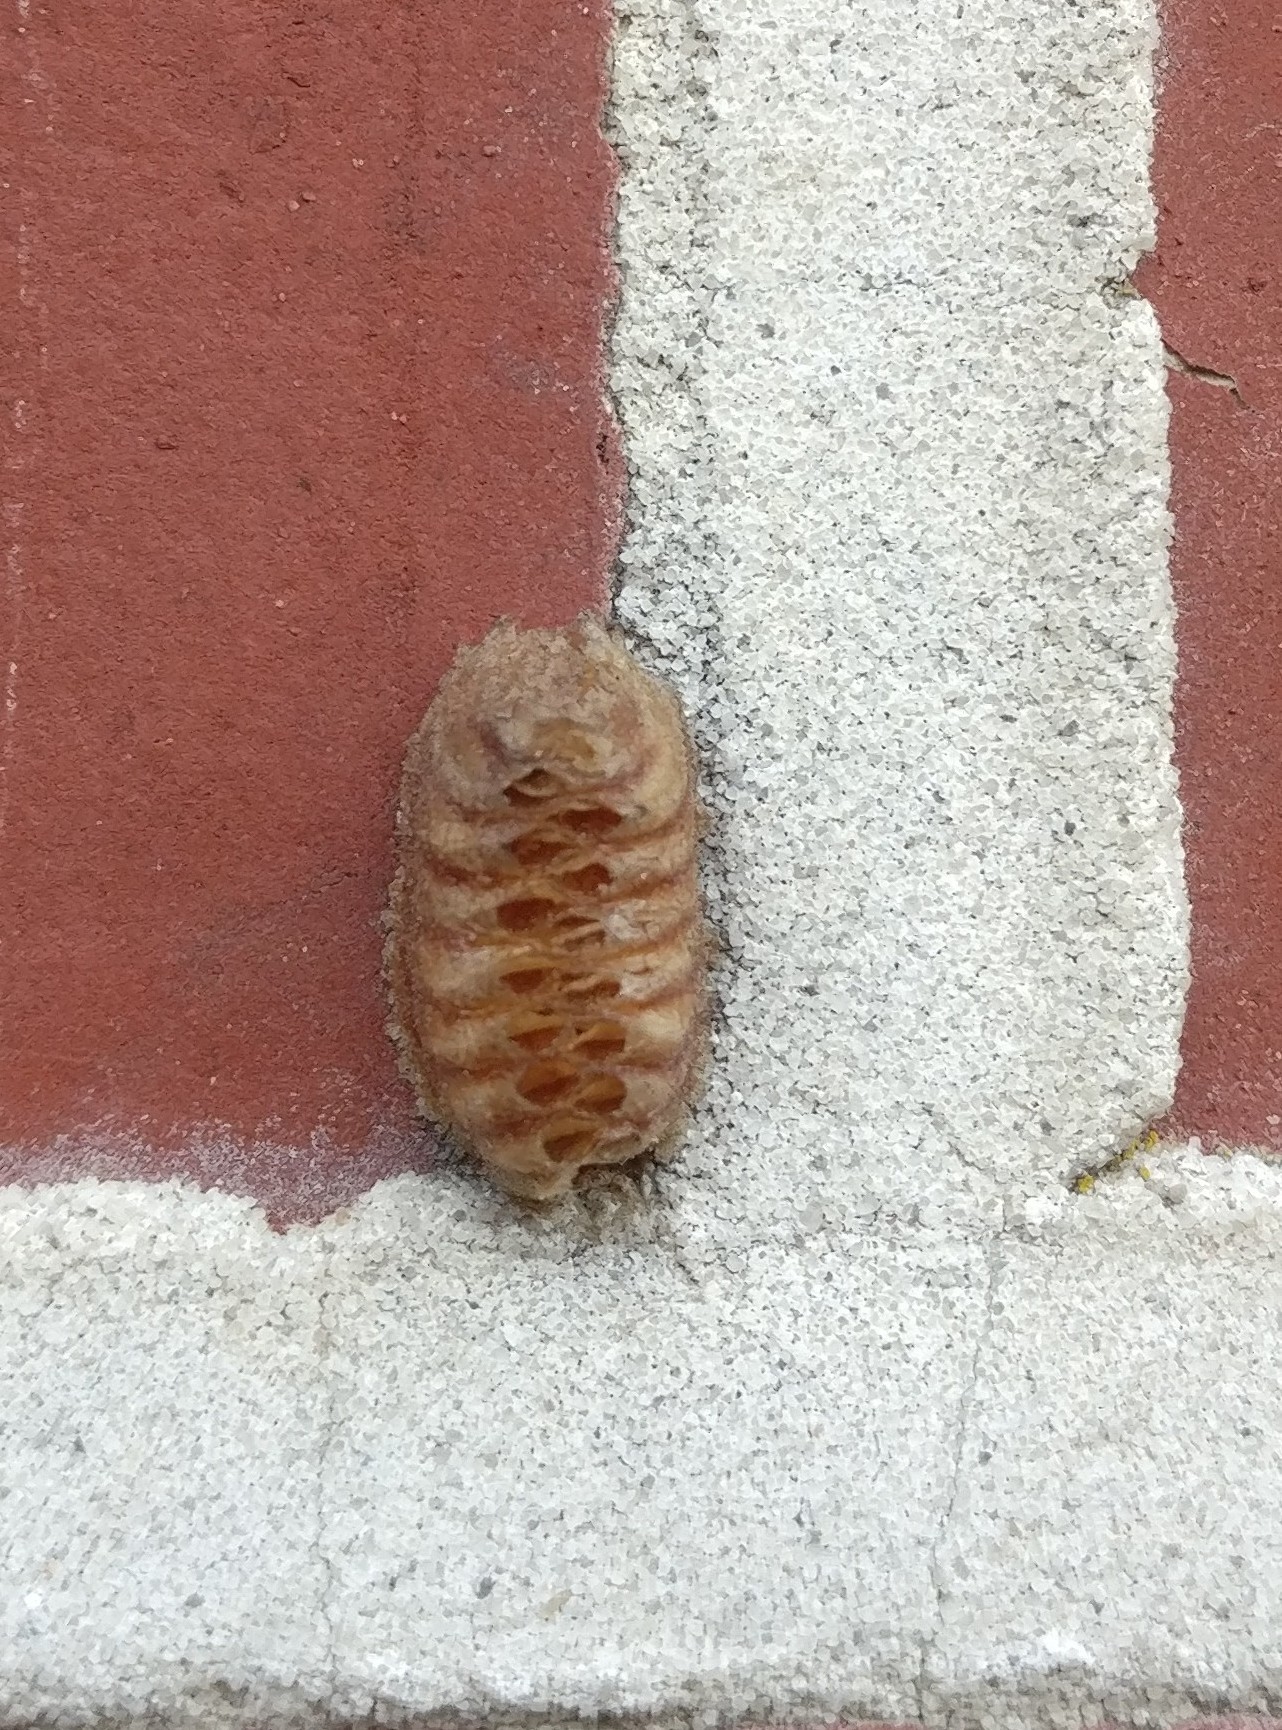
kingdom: Animalia
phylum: Arthropoda
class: Insecta
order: Mantodea
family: Mantidae
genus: Orthodera
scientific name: Orthodera novaezealandiae
